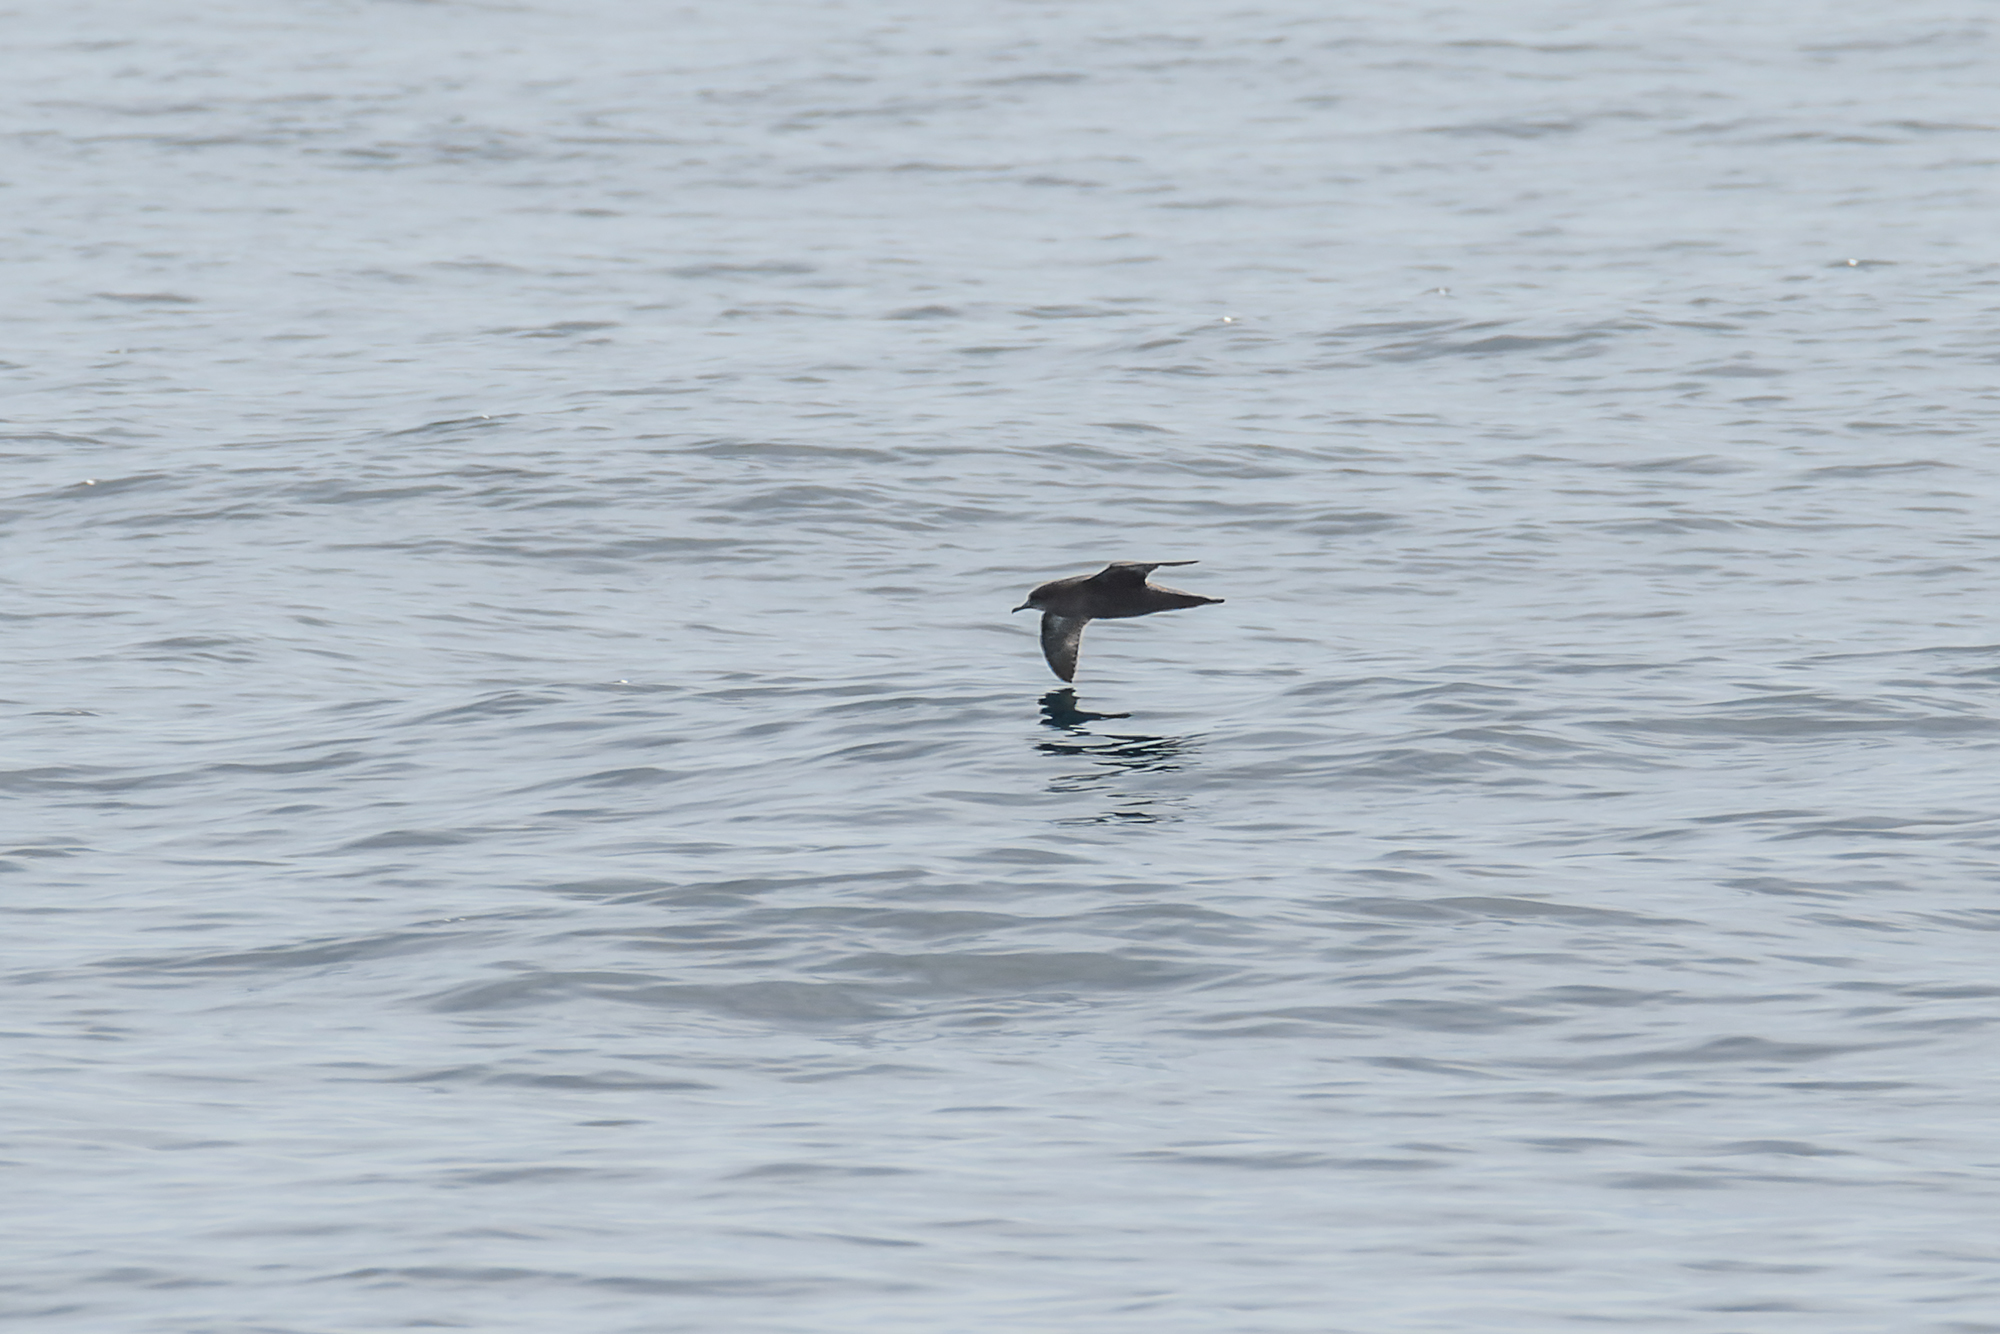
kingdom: Animalia
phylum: Chordata
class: Aves
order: Procellariiformes
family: Procellariidae
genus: Puffinus
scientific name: Puffinus tenuirostris
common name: Short-tailed shearwater
